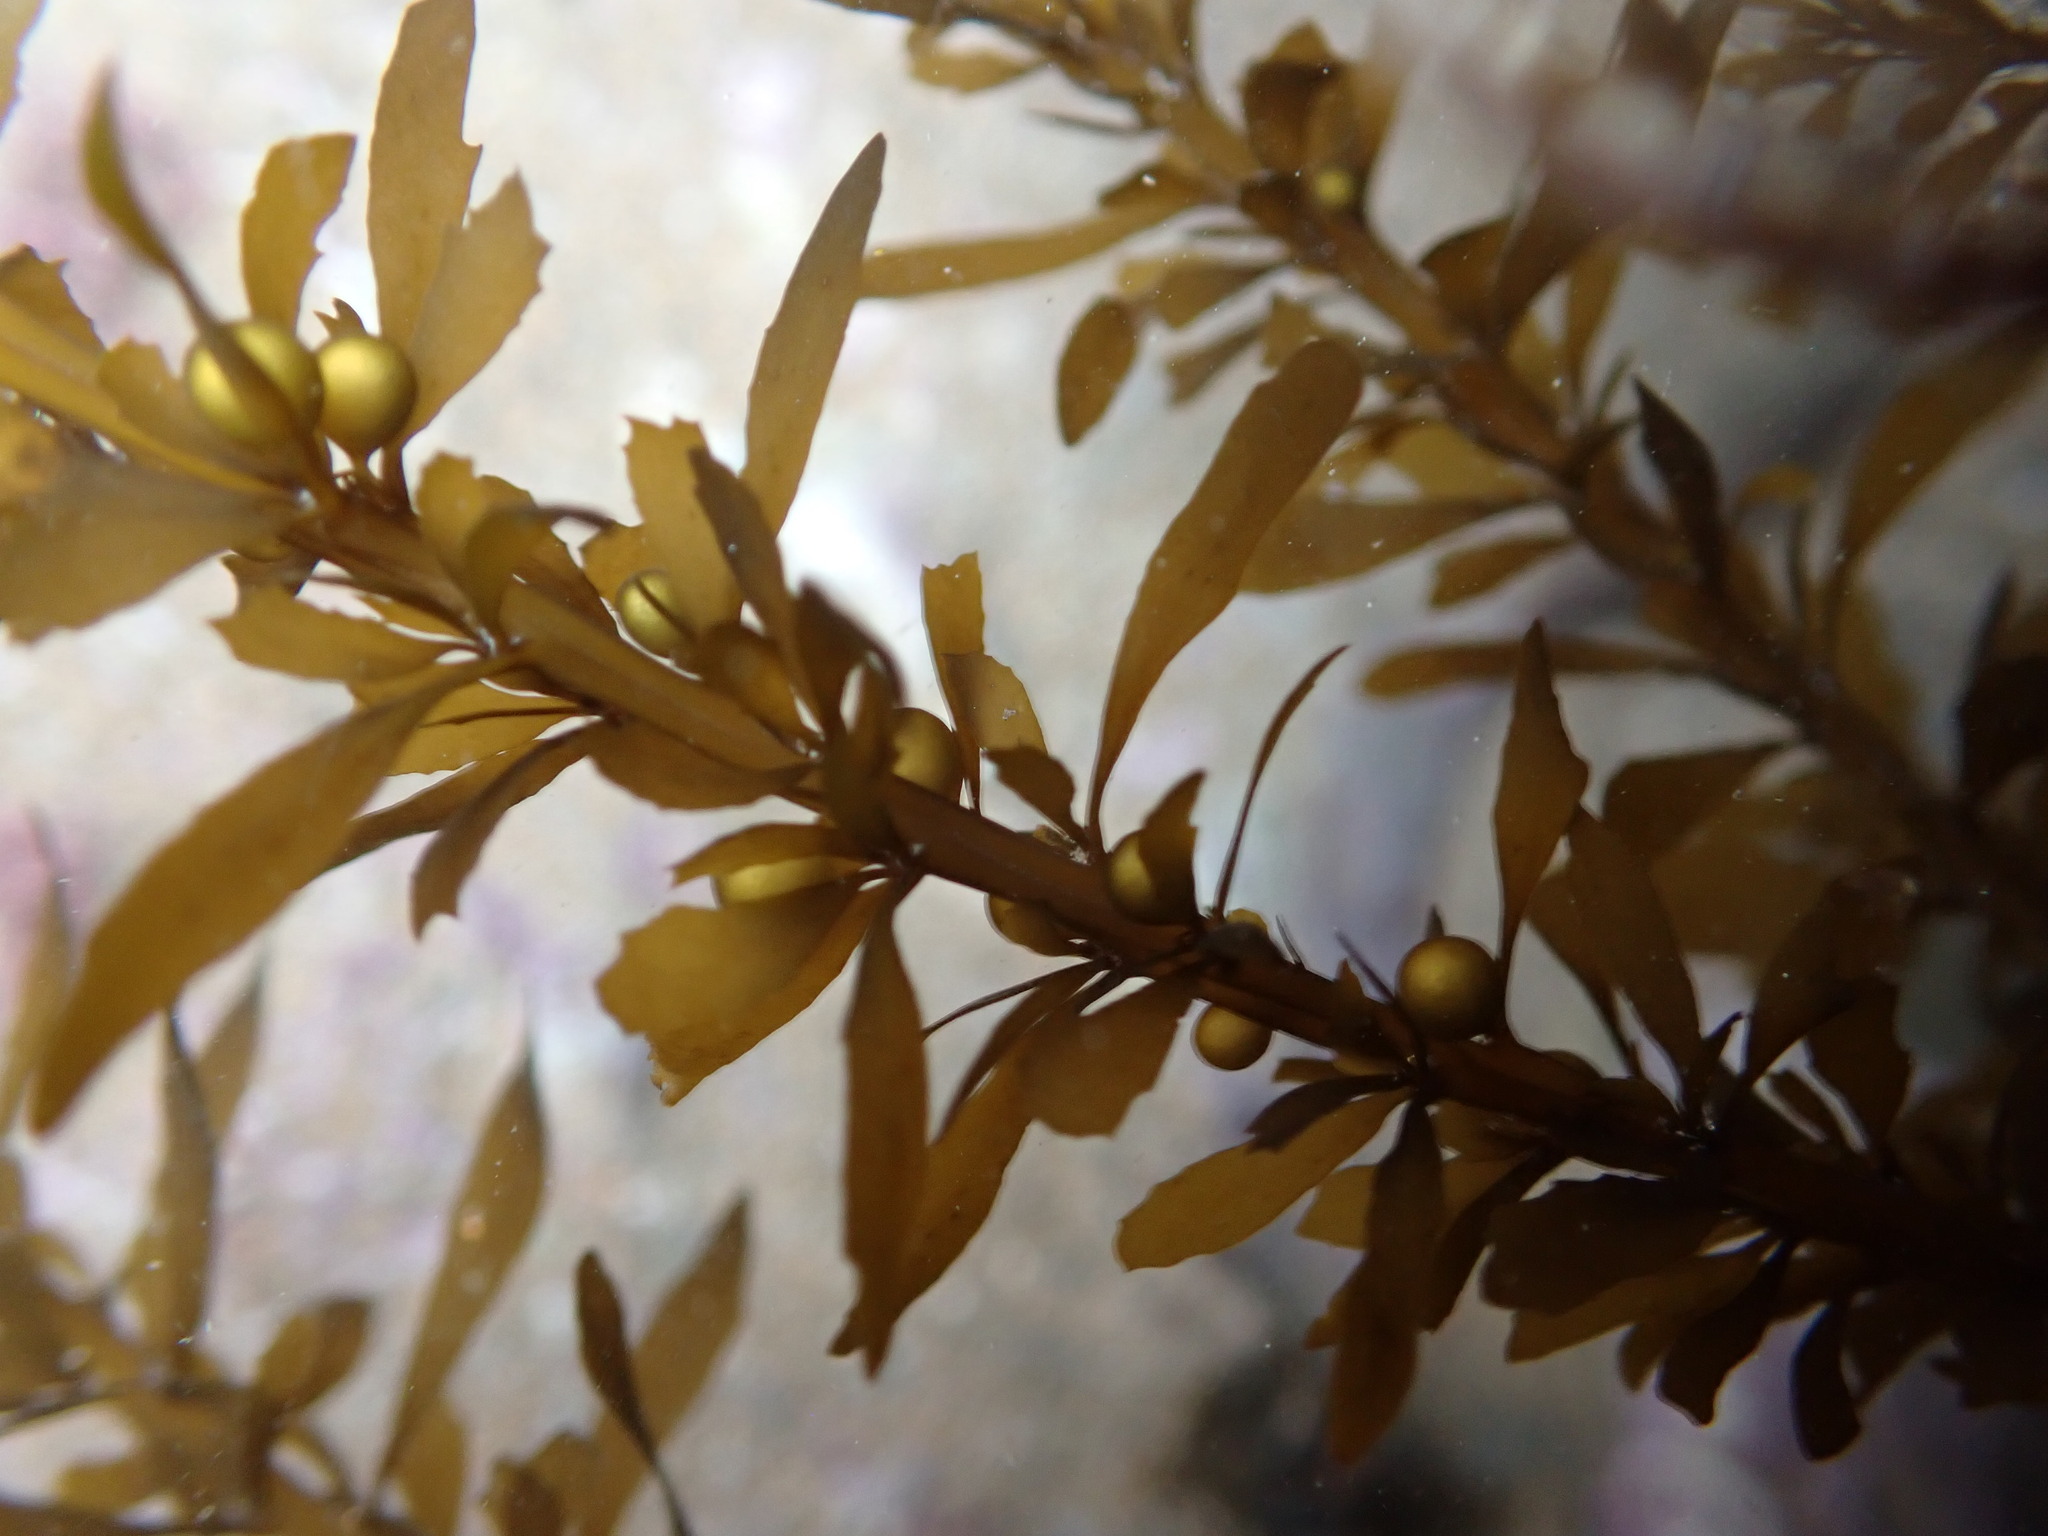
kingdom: Chromista
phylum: Ochrophyta
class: Phaeophyceae
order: Fucales
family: Sargassaceae
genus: Sargassum
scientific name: Sargassum muticum
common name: Japweed
